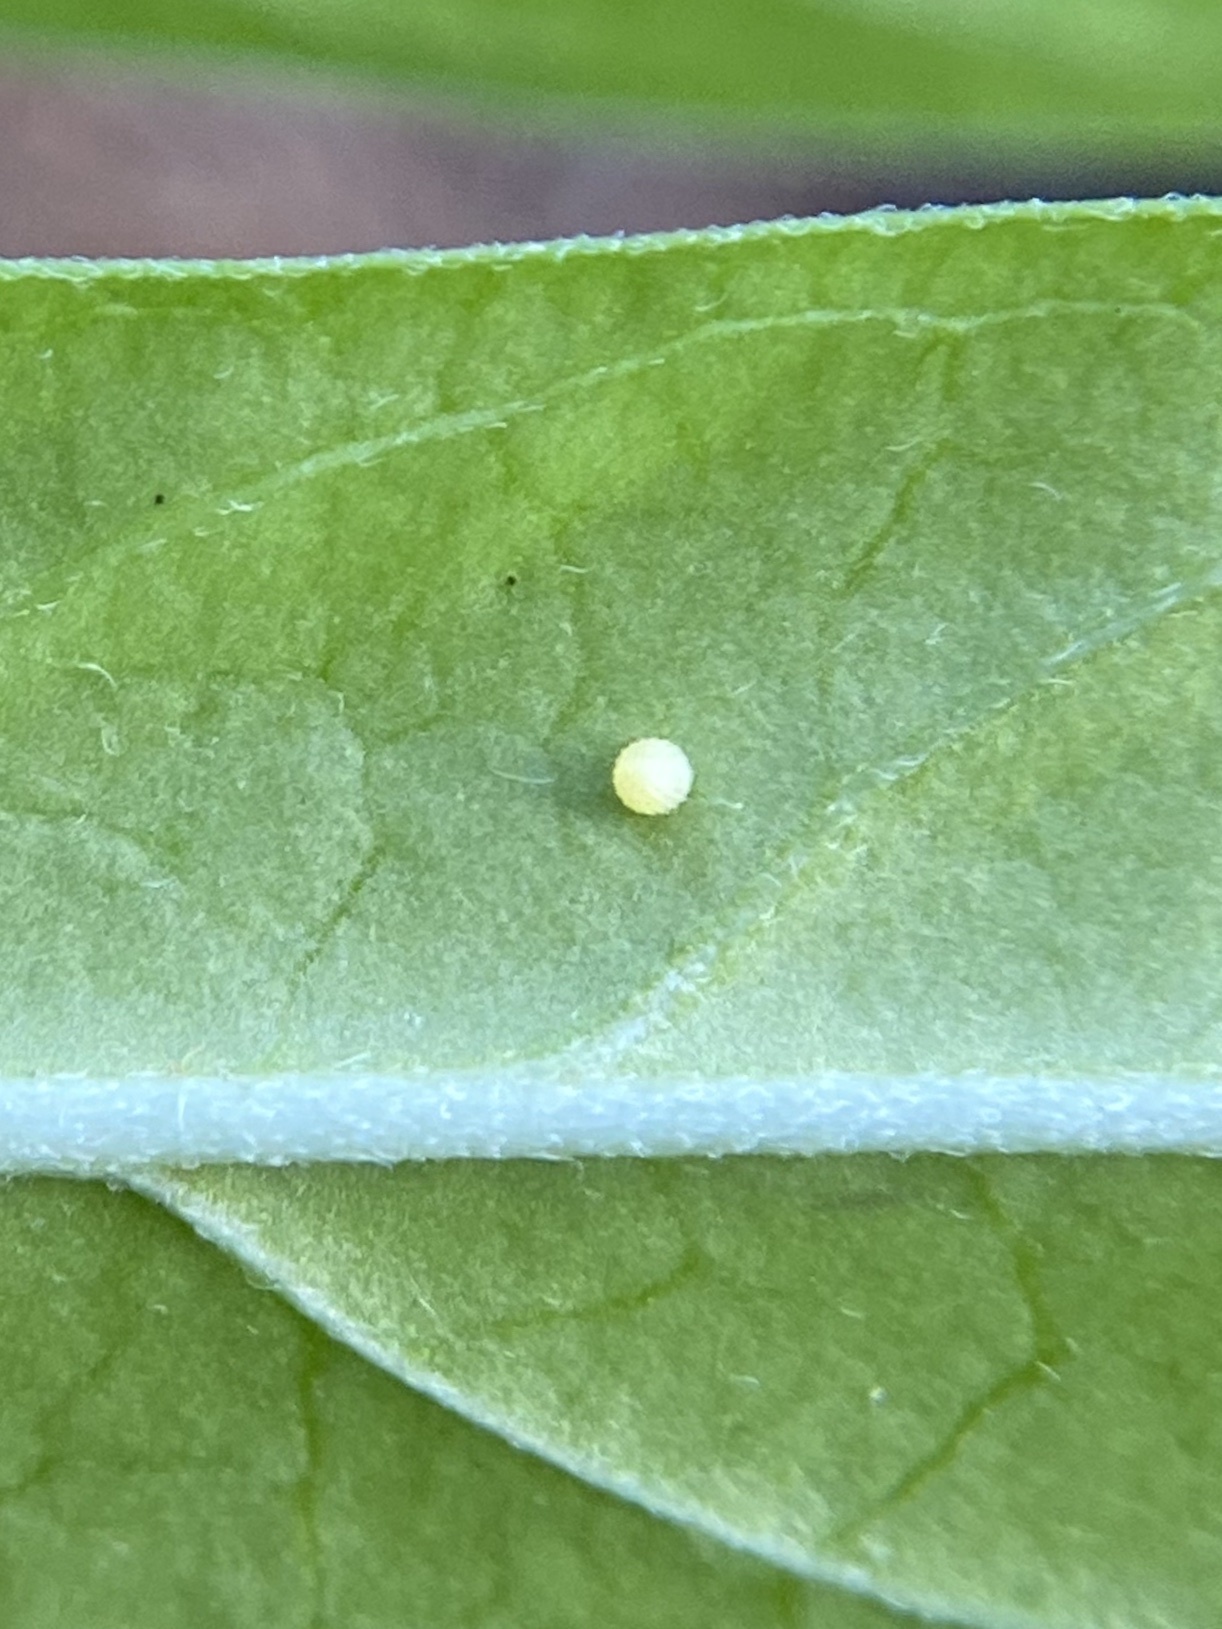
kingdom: Animalia
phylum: Arthropoda
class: Insecta
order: Lepidoptera
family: Nymphalidae
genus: Danaus
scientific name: Danaus plexippus
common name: Monarch
